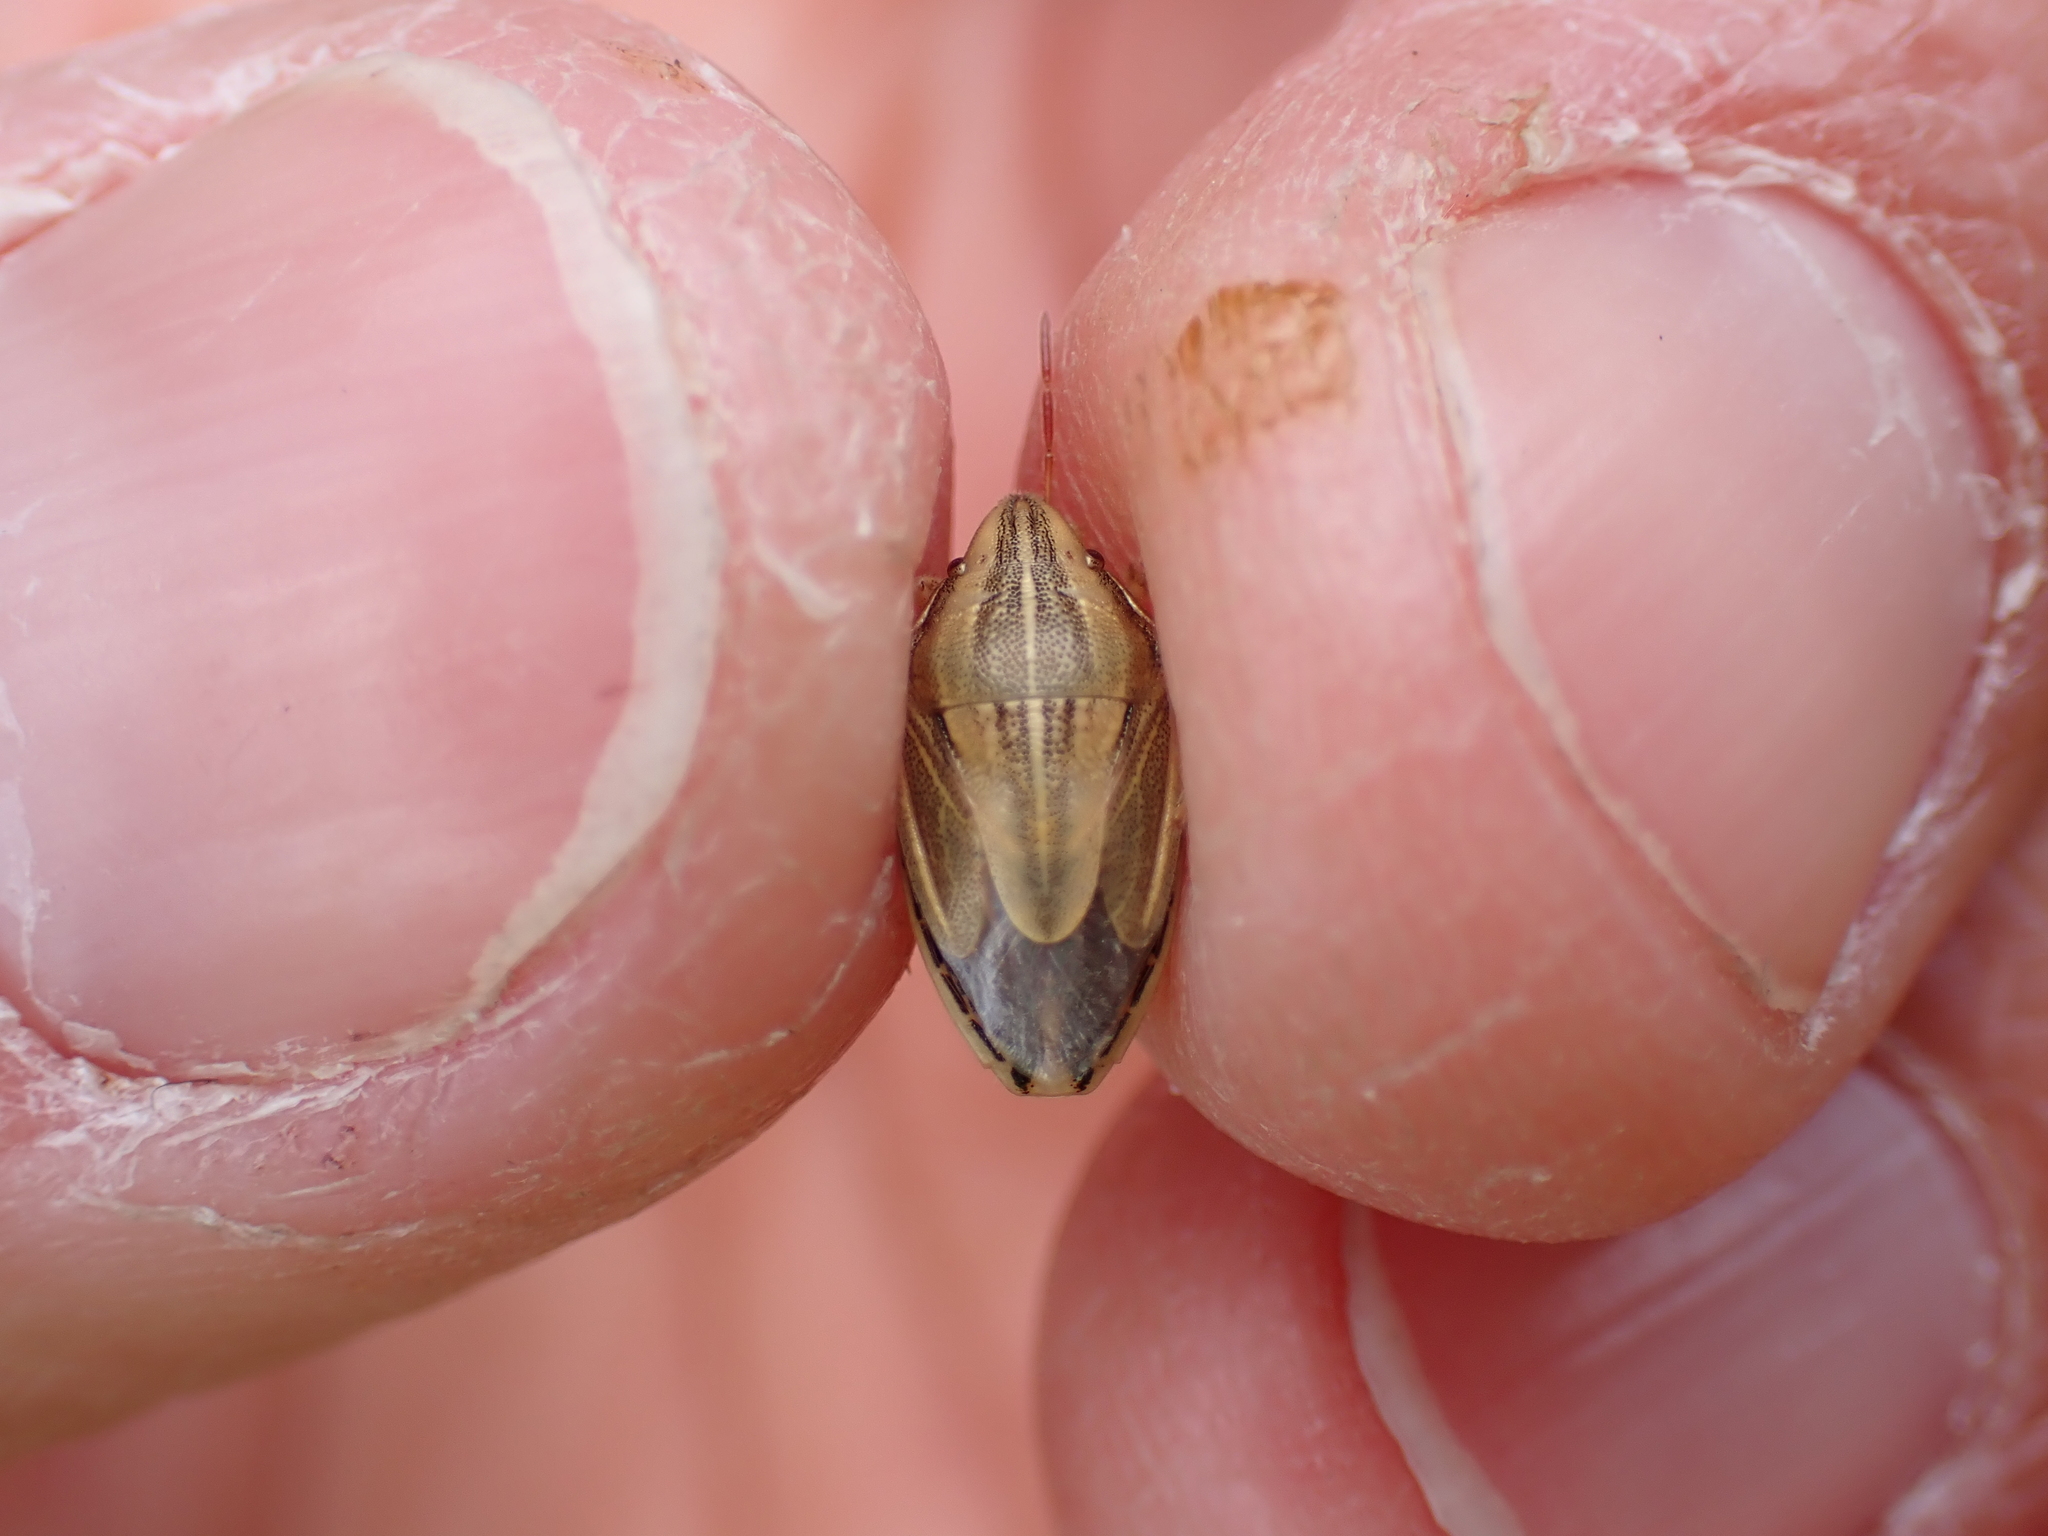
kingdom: Animalia
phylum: Arthropoda
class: Insecta
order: Hemiptera
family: Pentatomidae
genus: Aelia
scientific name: Aelia acuminata
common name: Bishop's mitre
